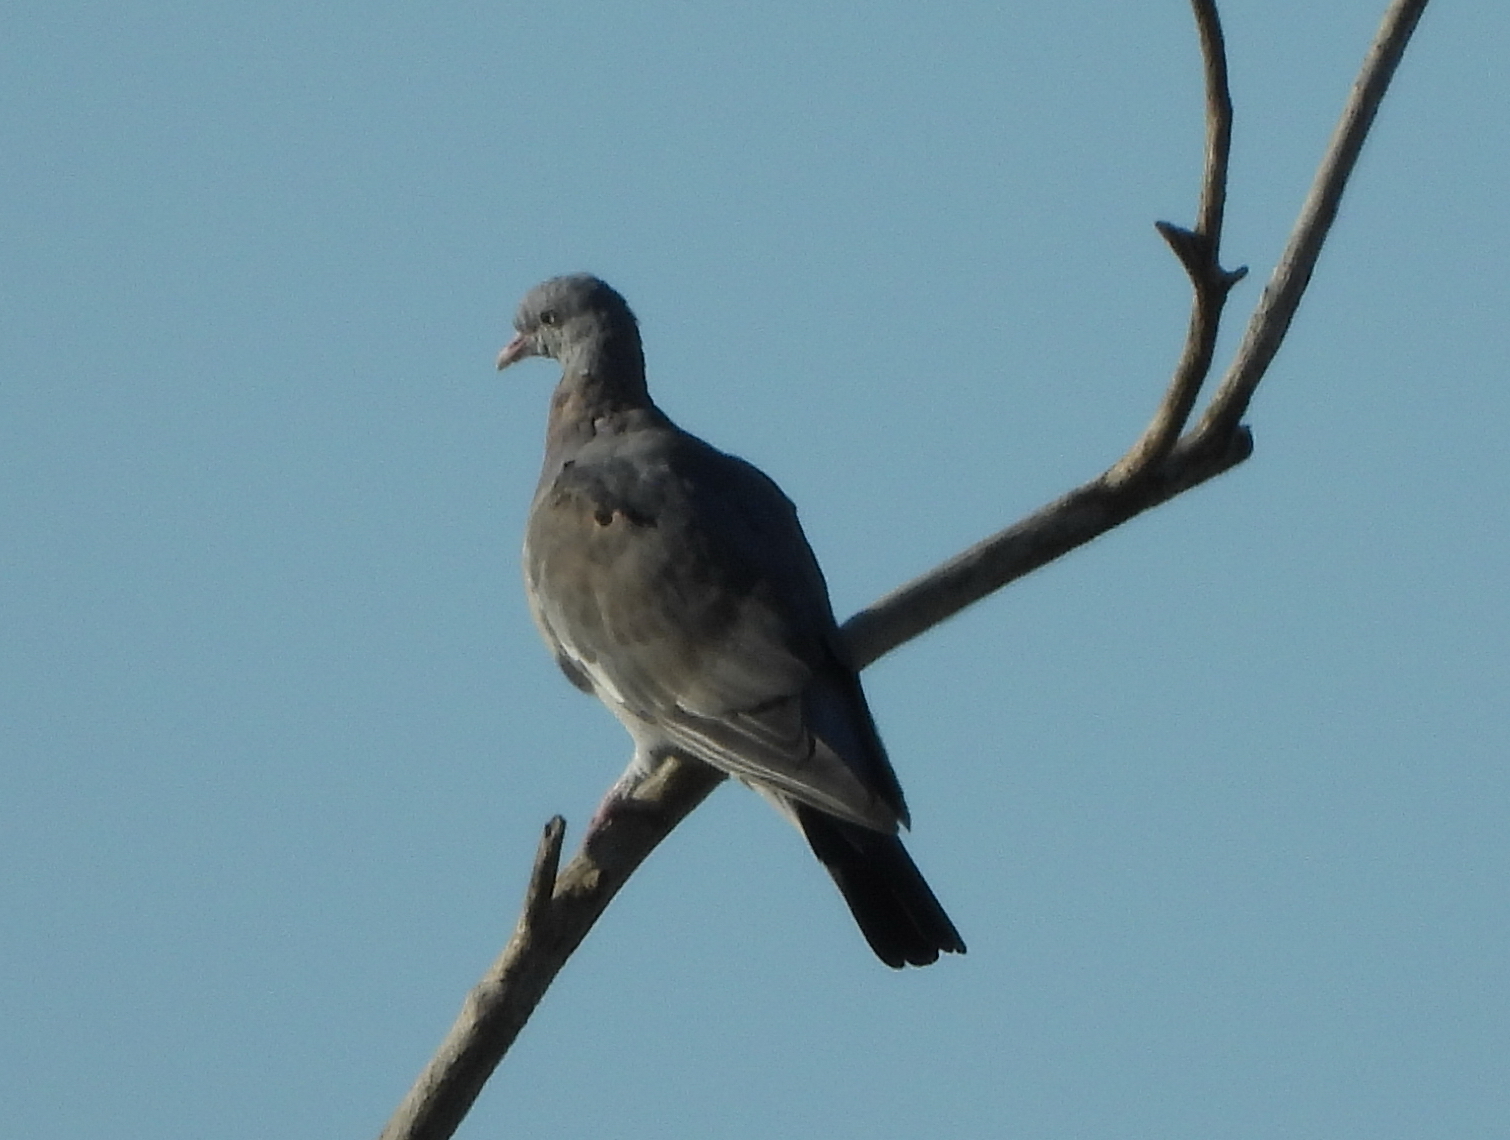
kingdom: Animalia
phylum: Chordata
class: Aves
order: Columbiformes
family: Columbidae
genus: Columba
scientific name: Columba palumbus
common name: Common wood pigeon
